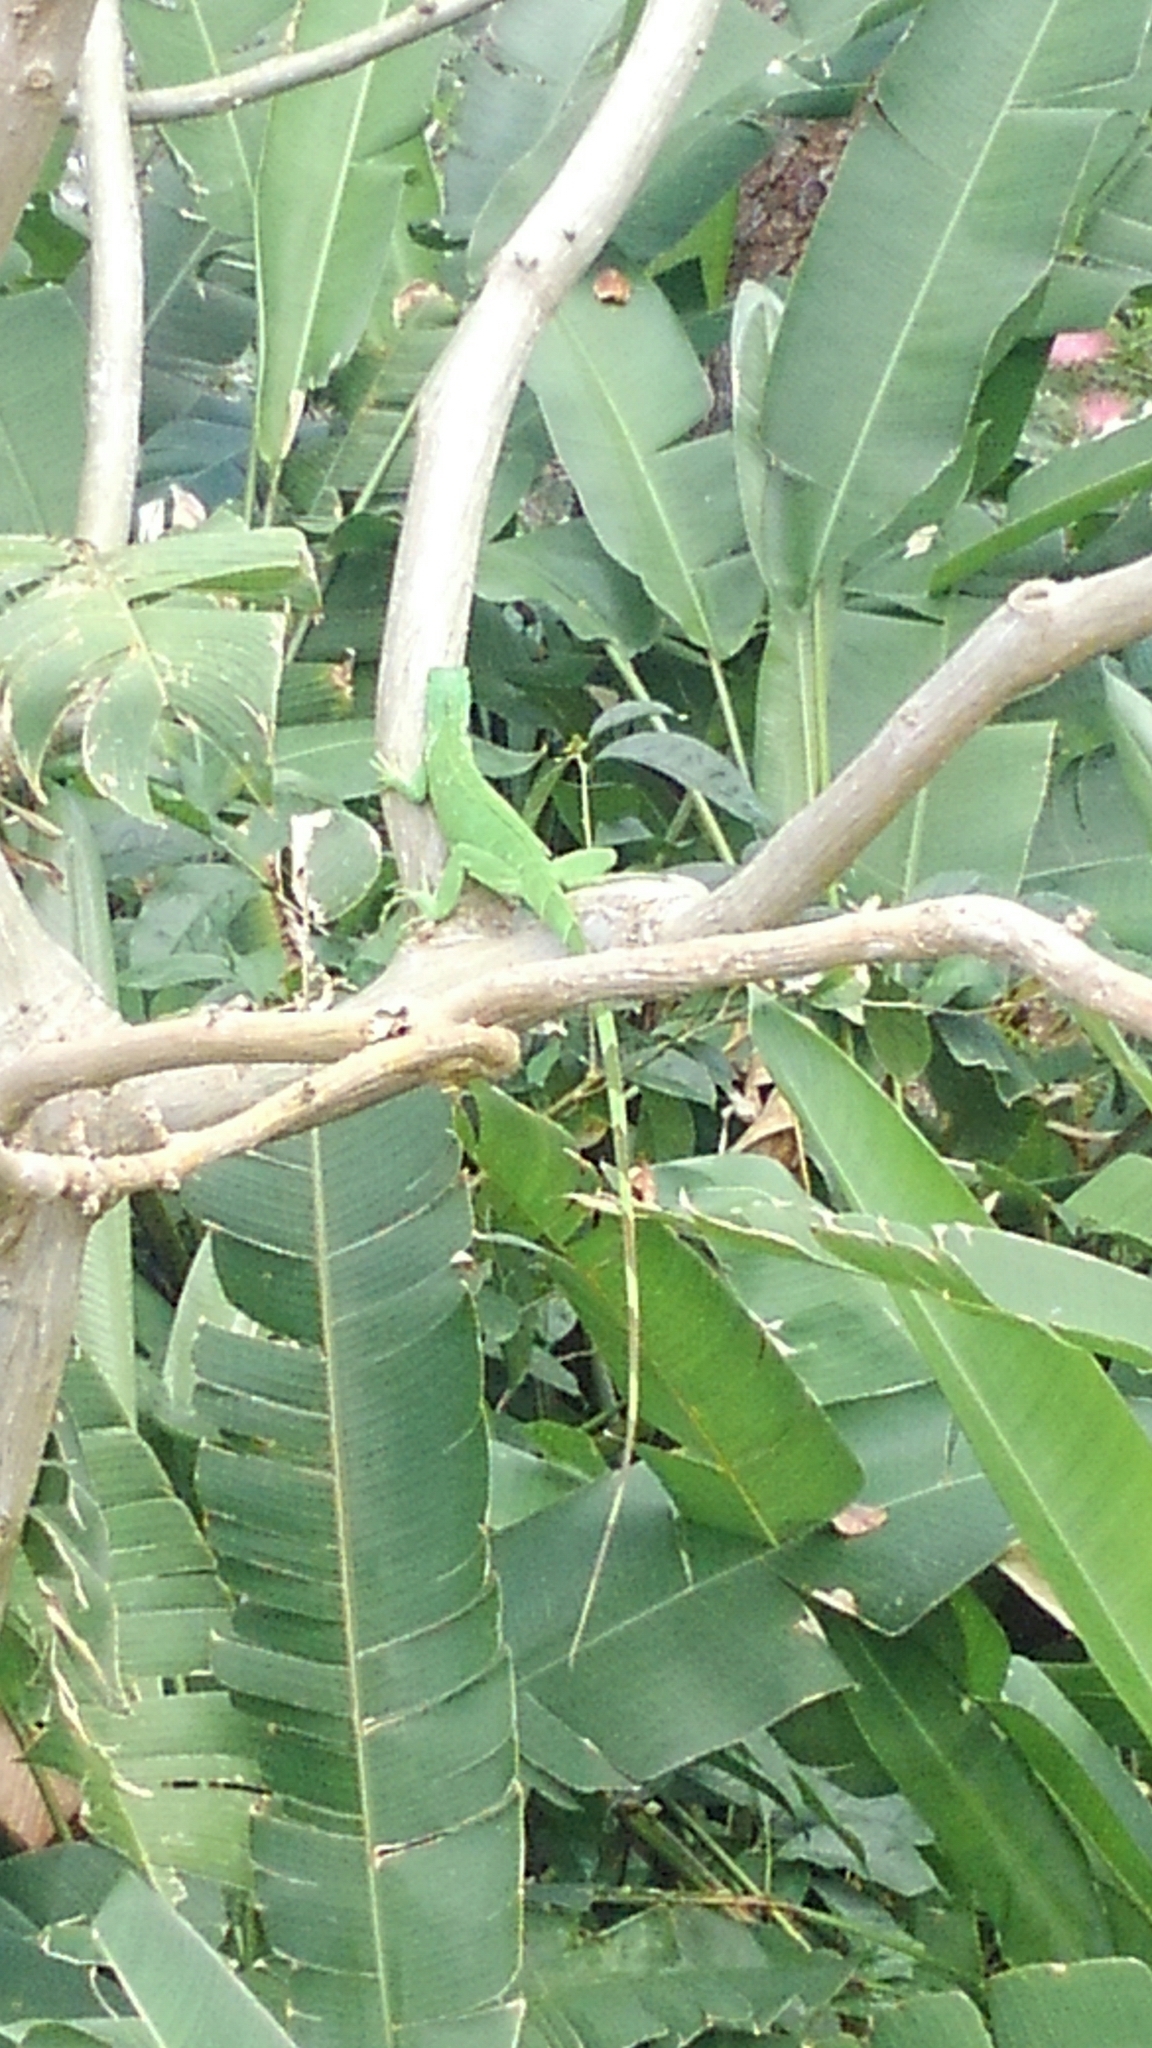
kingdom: Animalia
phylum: Chordata
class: Squamata
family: Iguanidae
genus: Iguana
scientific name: Iguana iguana
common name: Green iguana
